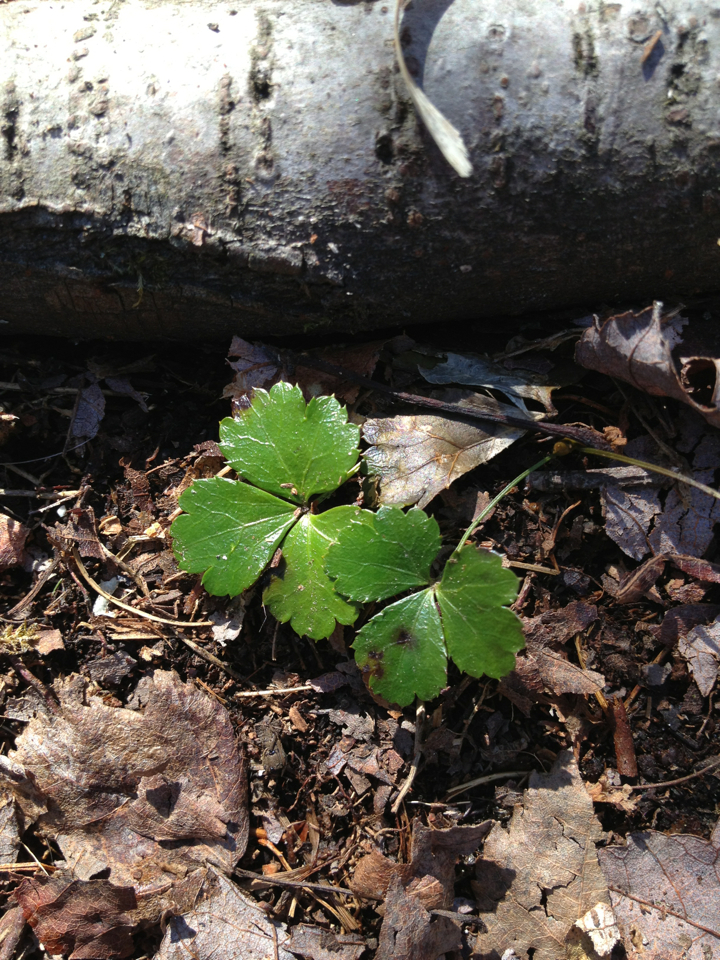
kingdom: Plantae
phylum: Tracheophyta
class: Magnoliopsida
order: Ranunculales
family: Ranunculaceae
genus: Coptis
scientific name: Coptis trifolia
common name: Canker-root
